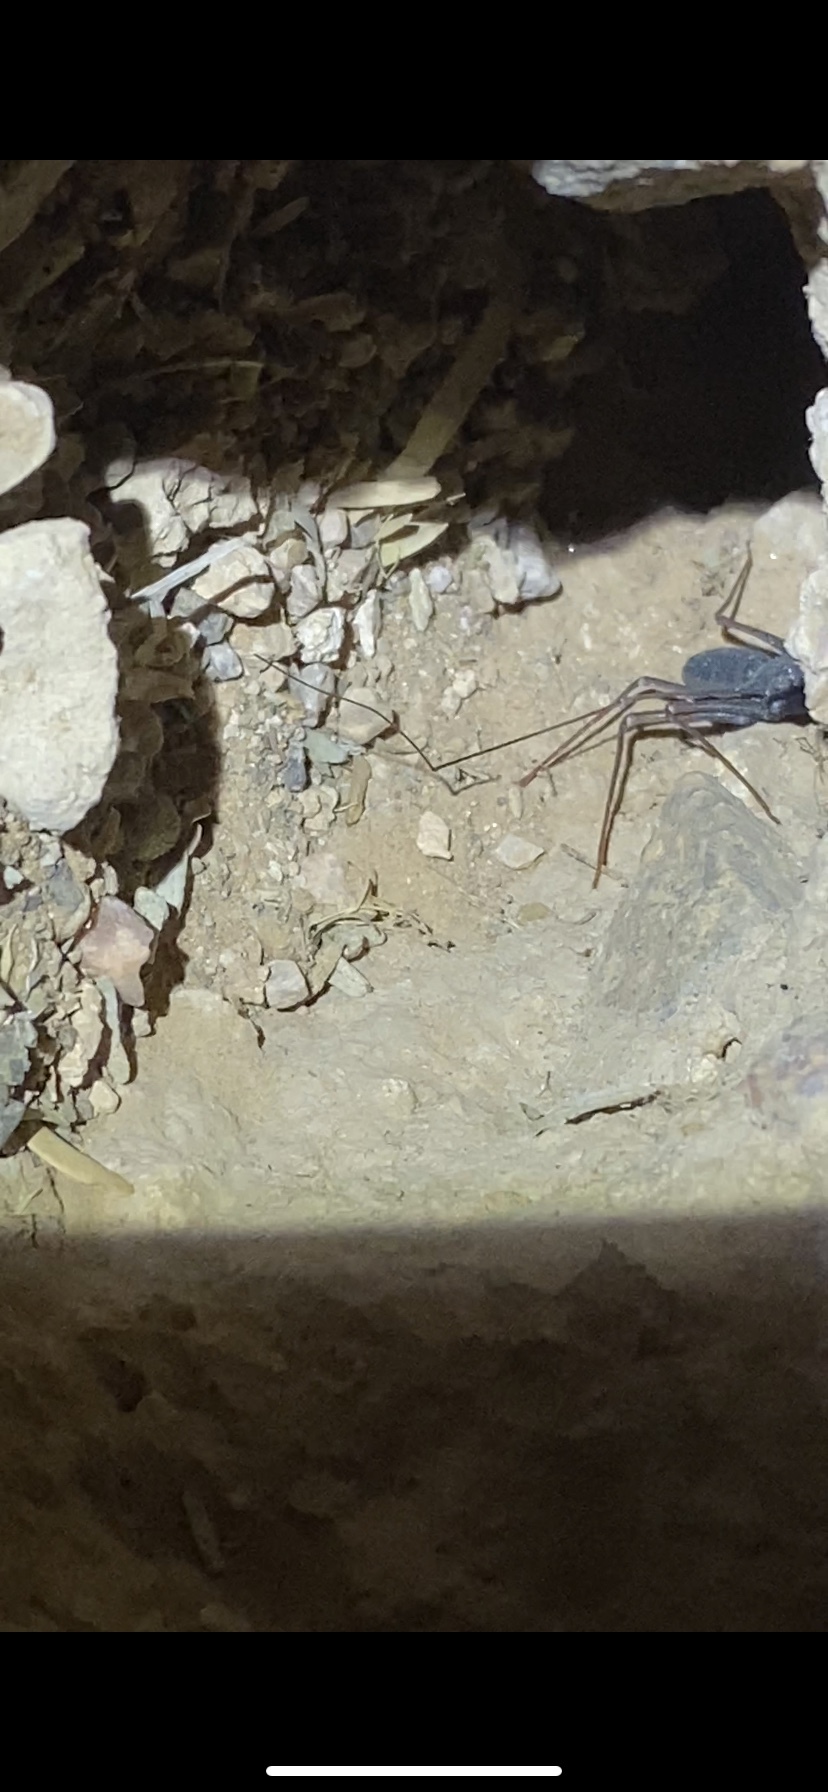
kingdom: Animalia
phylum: Arthropoda
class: Arachnida
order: Amblypygi
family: Phrynidae
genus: Paraphrynus
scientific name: Paraphrynus carolynae
